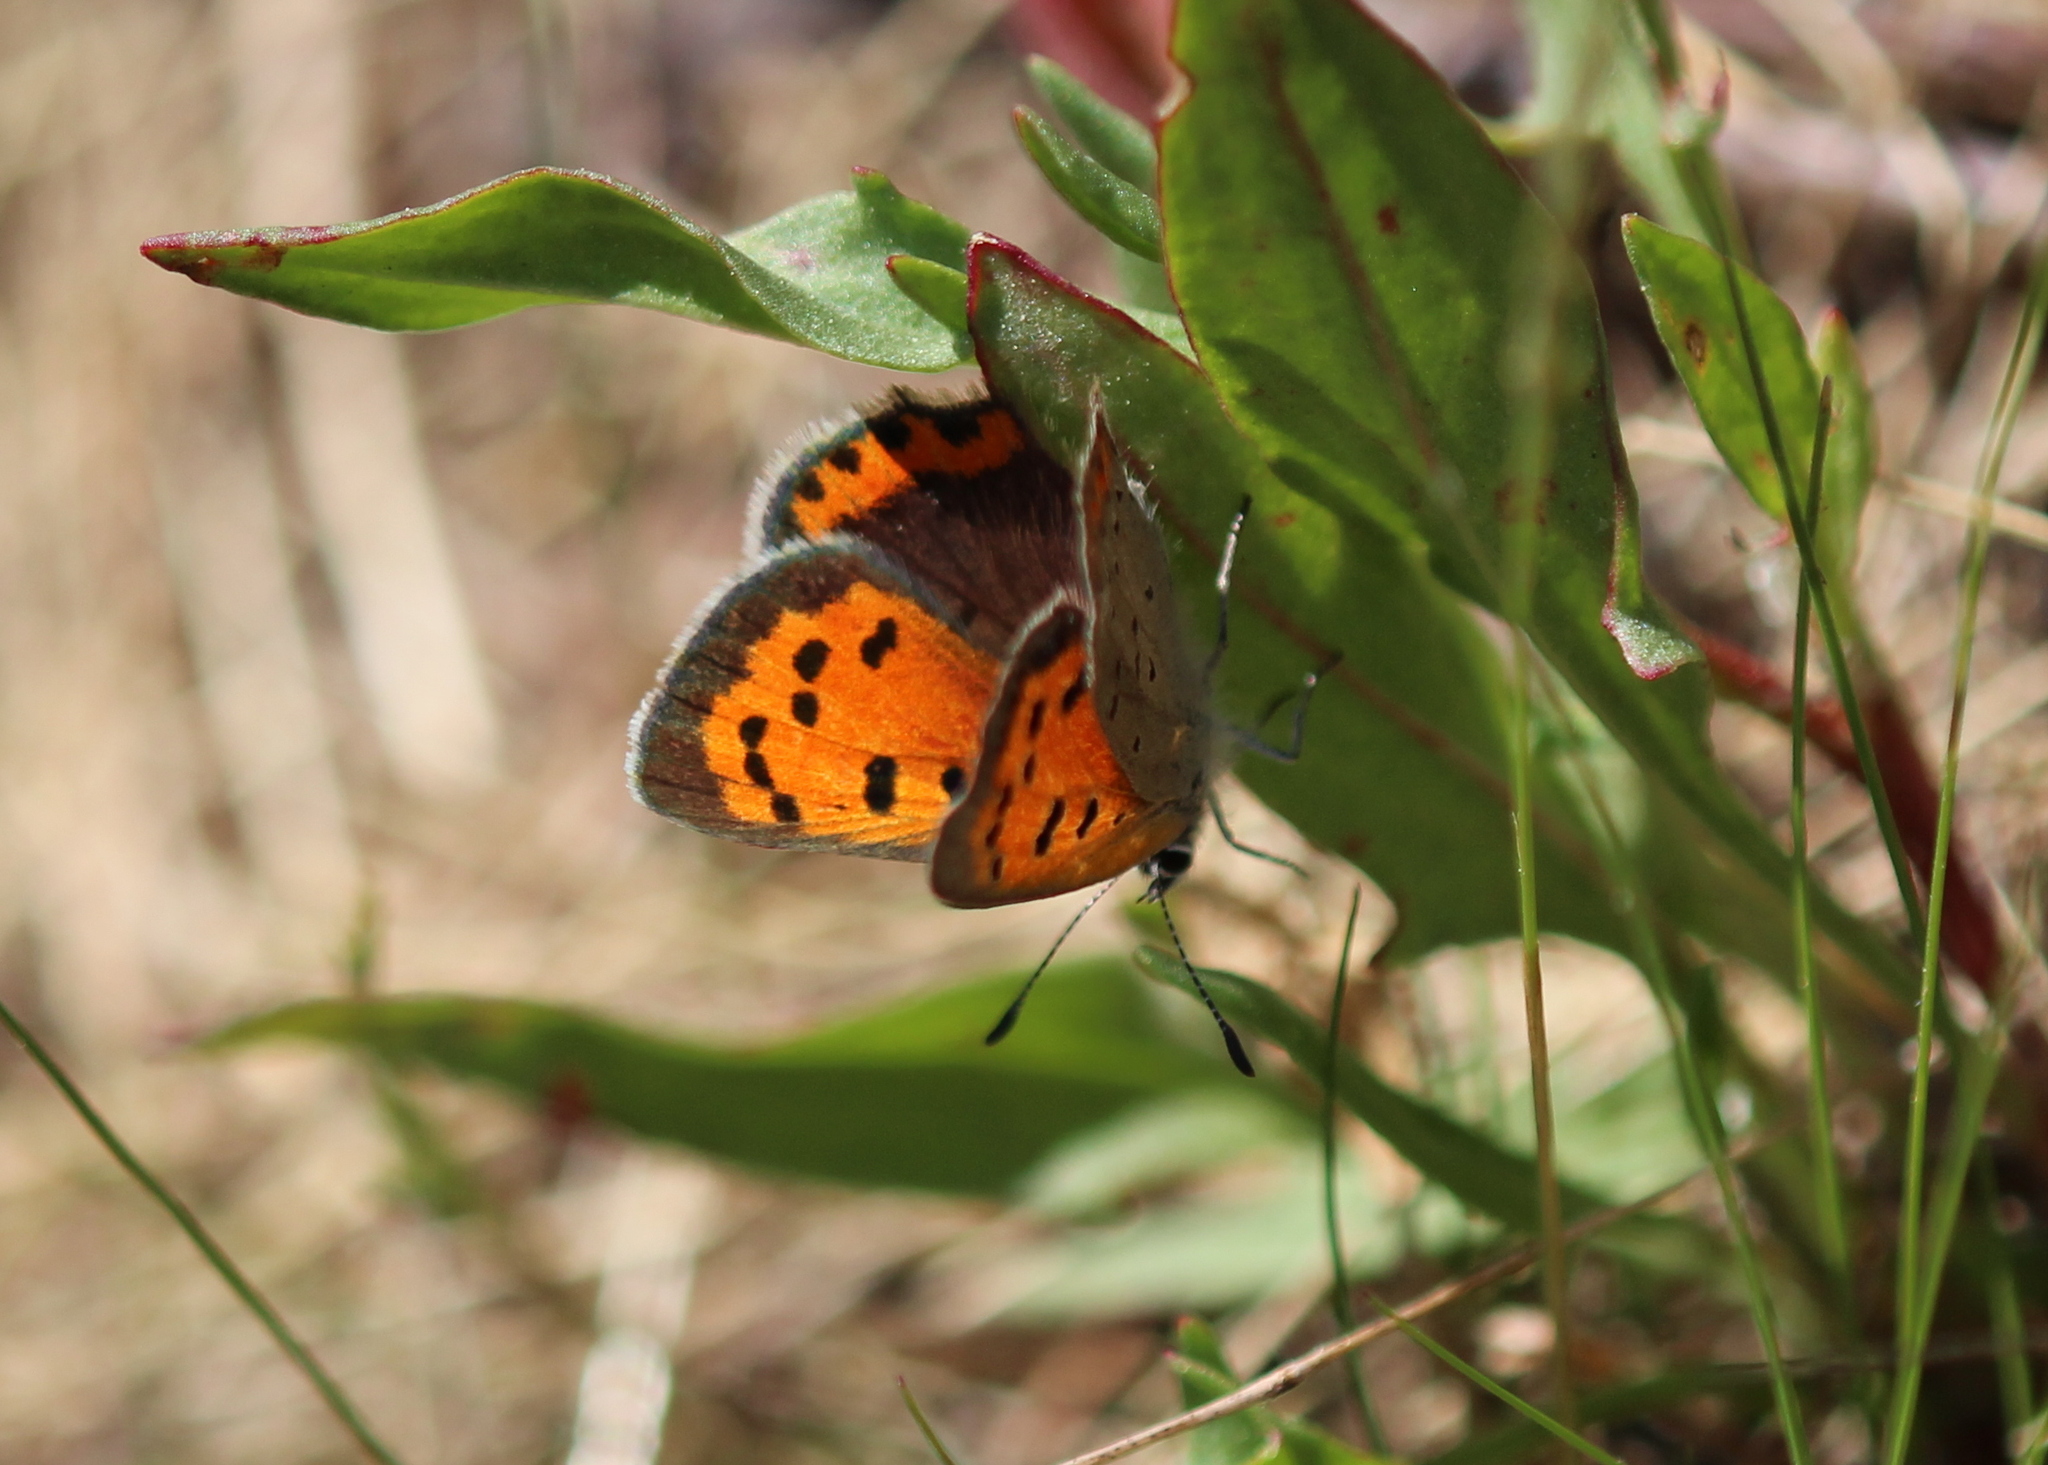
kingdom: Animalia
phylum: Arthropoda
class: Insecta
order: Lepidoptera
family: Lycaenidae
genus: Lycaena
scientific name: Lycaena hypophlaeas
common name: American copper
